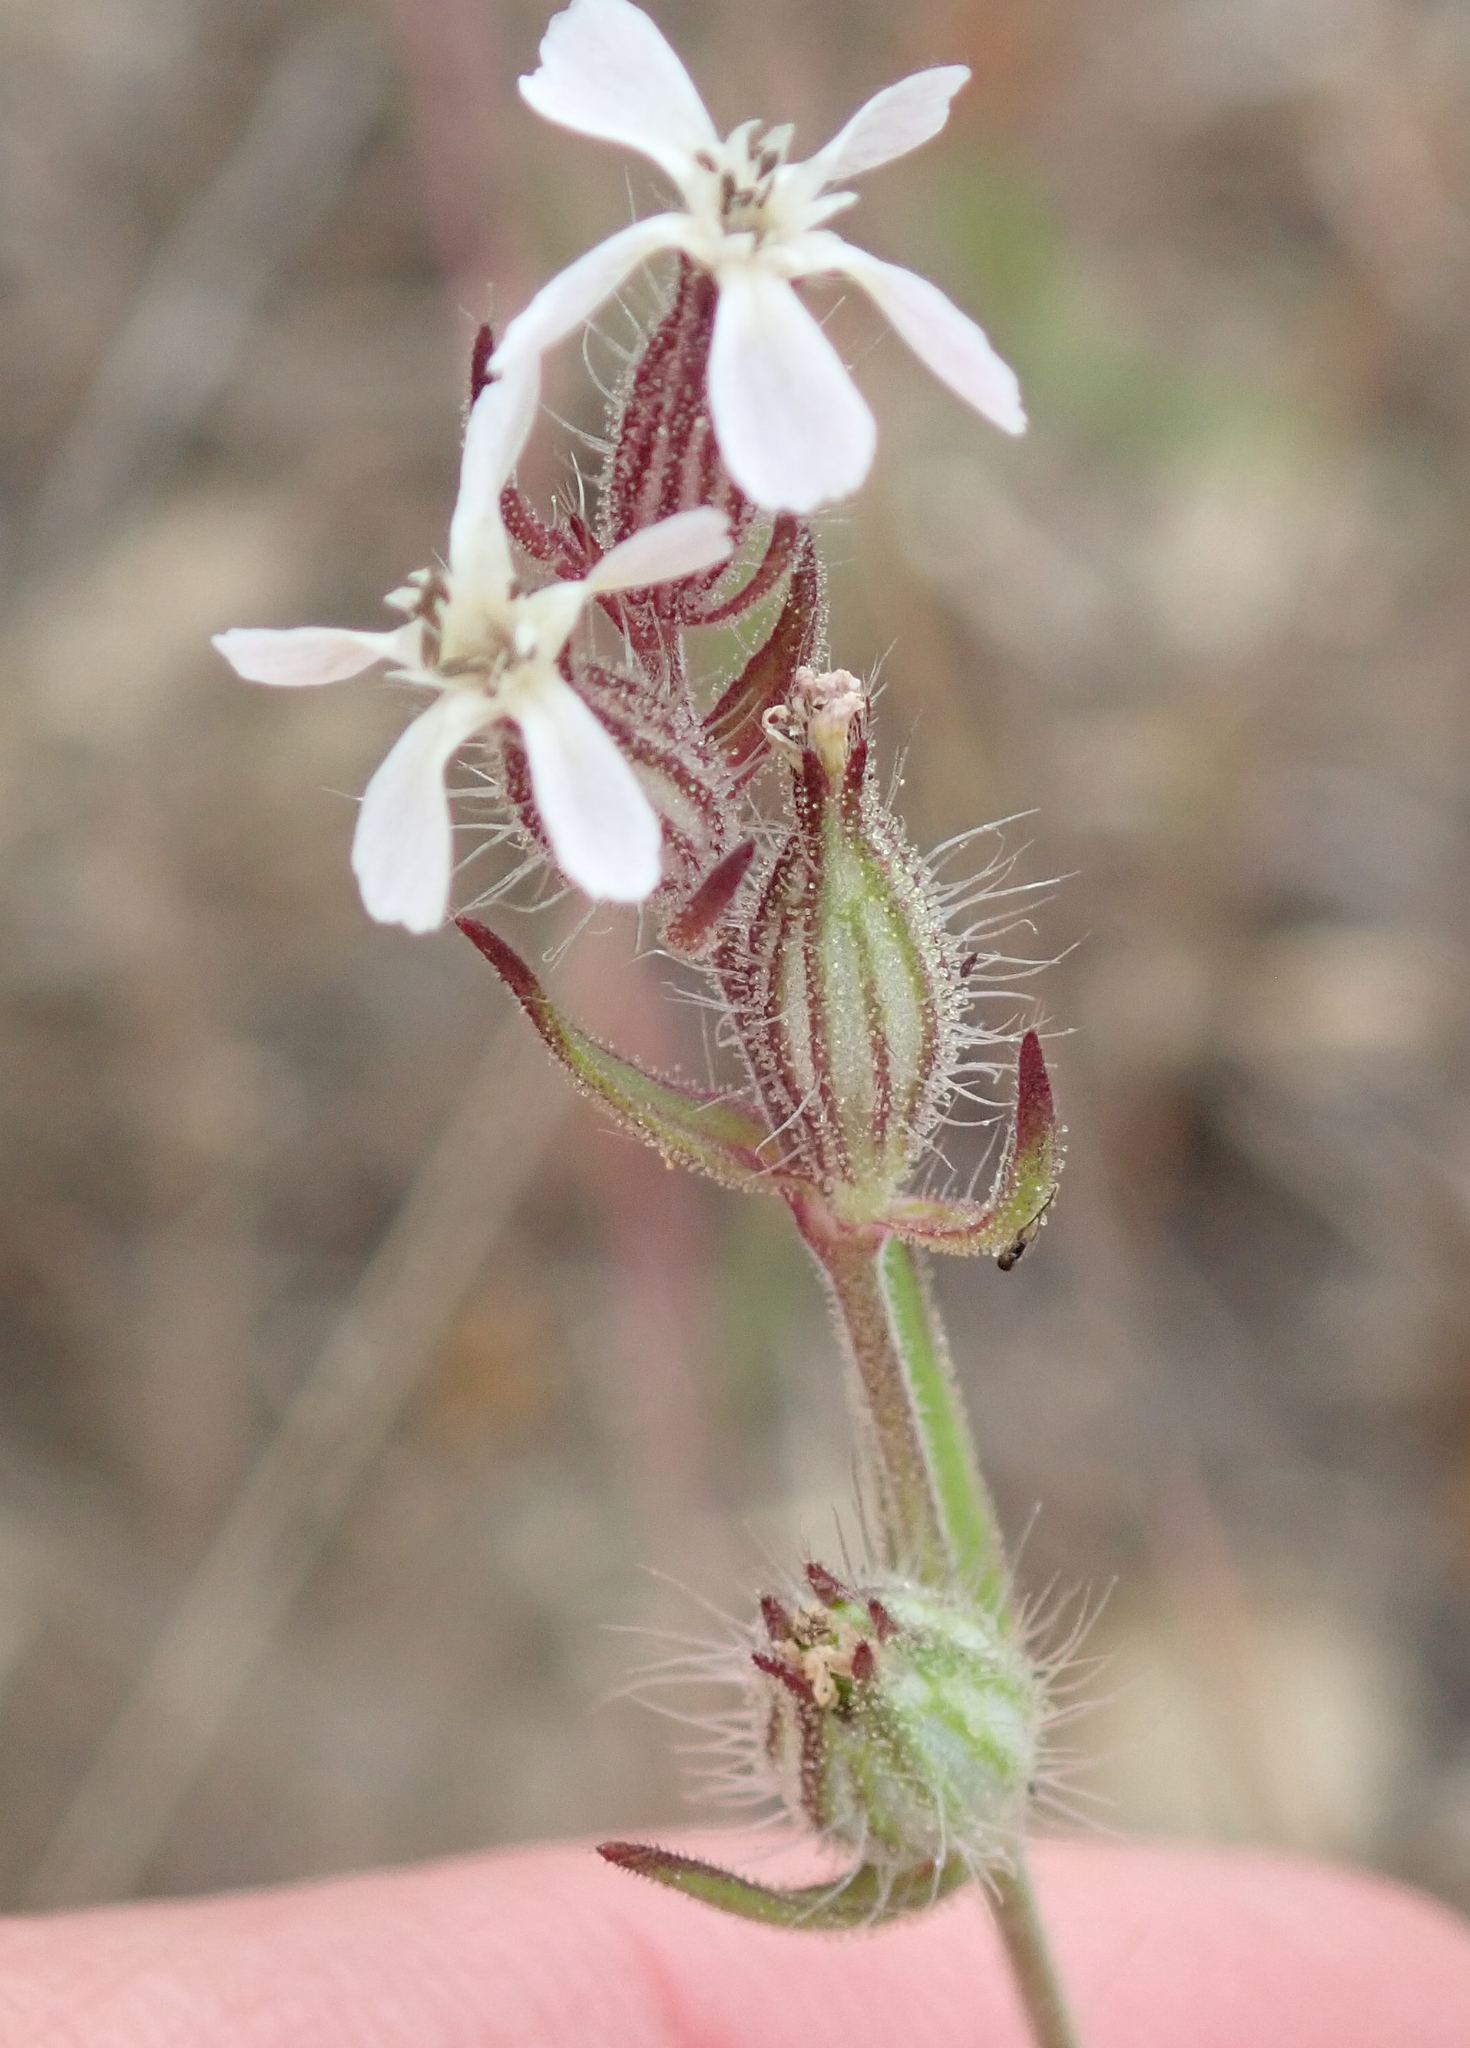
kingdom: Plantae
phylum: Tracheophyta
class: Magnoliopsida
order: Caryophyllales
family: Caryophyllaceae
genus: Silene
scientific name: Silene gallica
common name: Small-flowered catchfly
